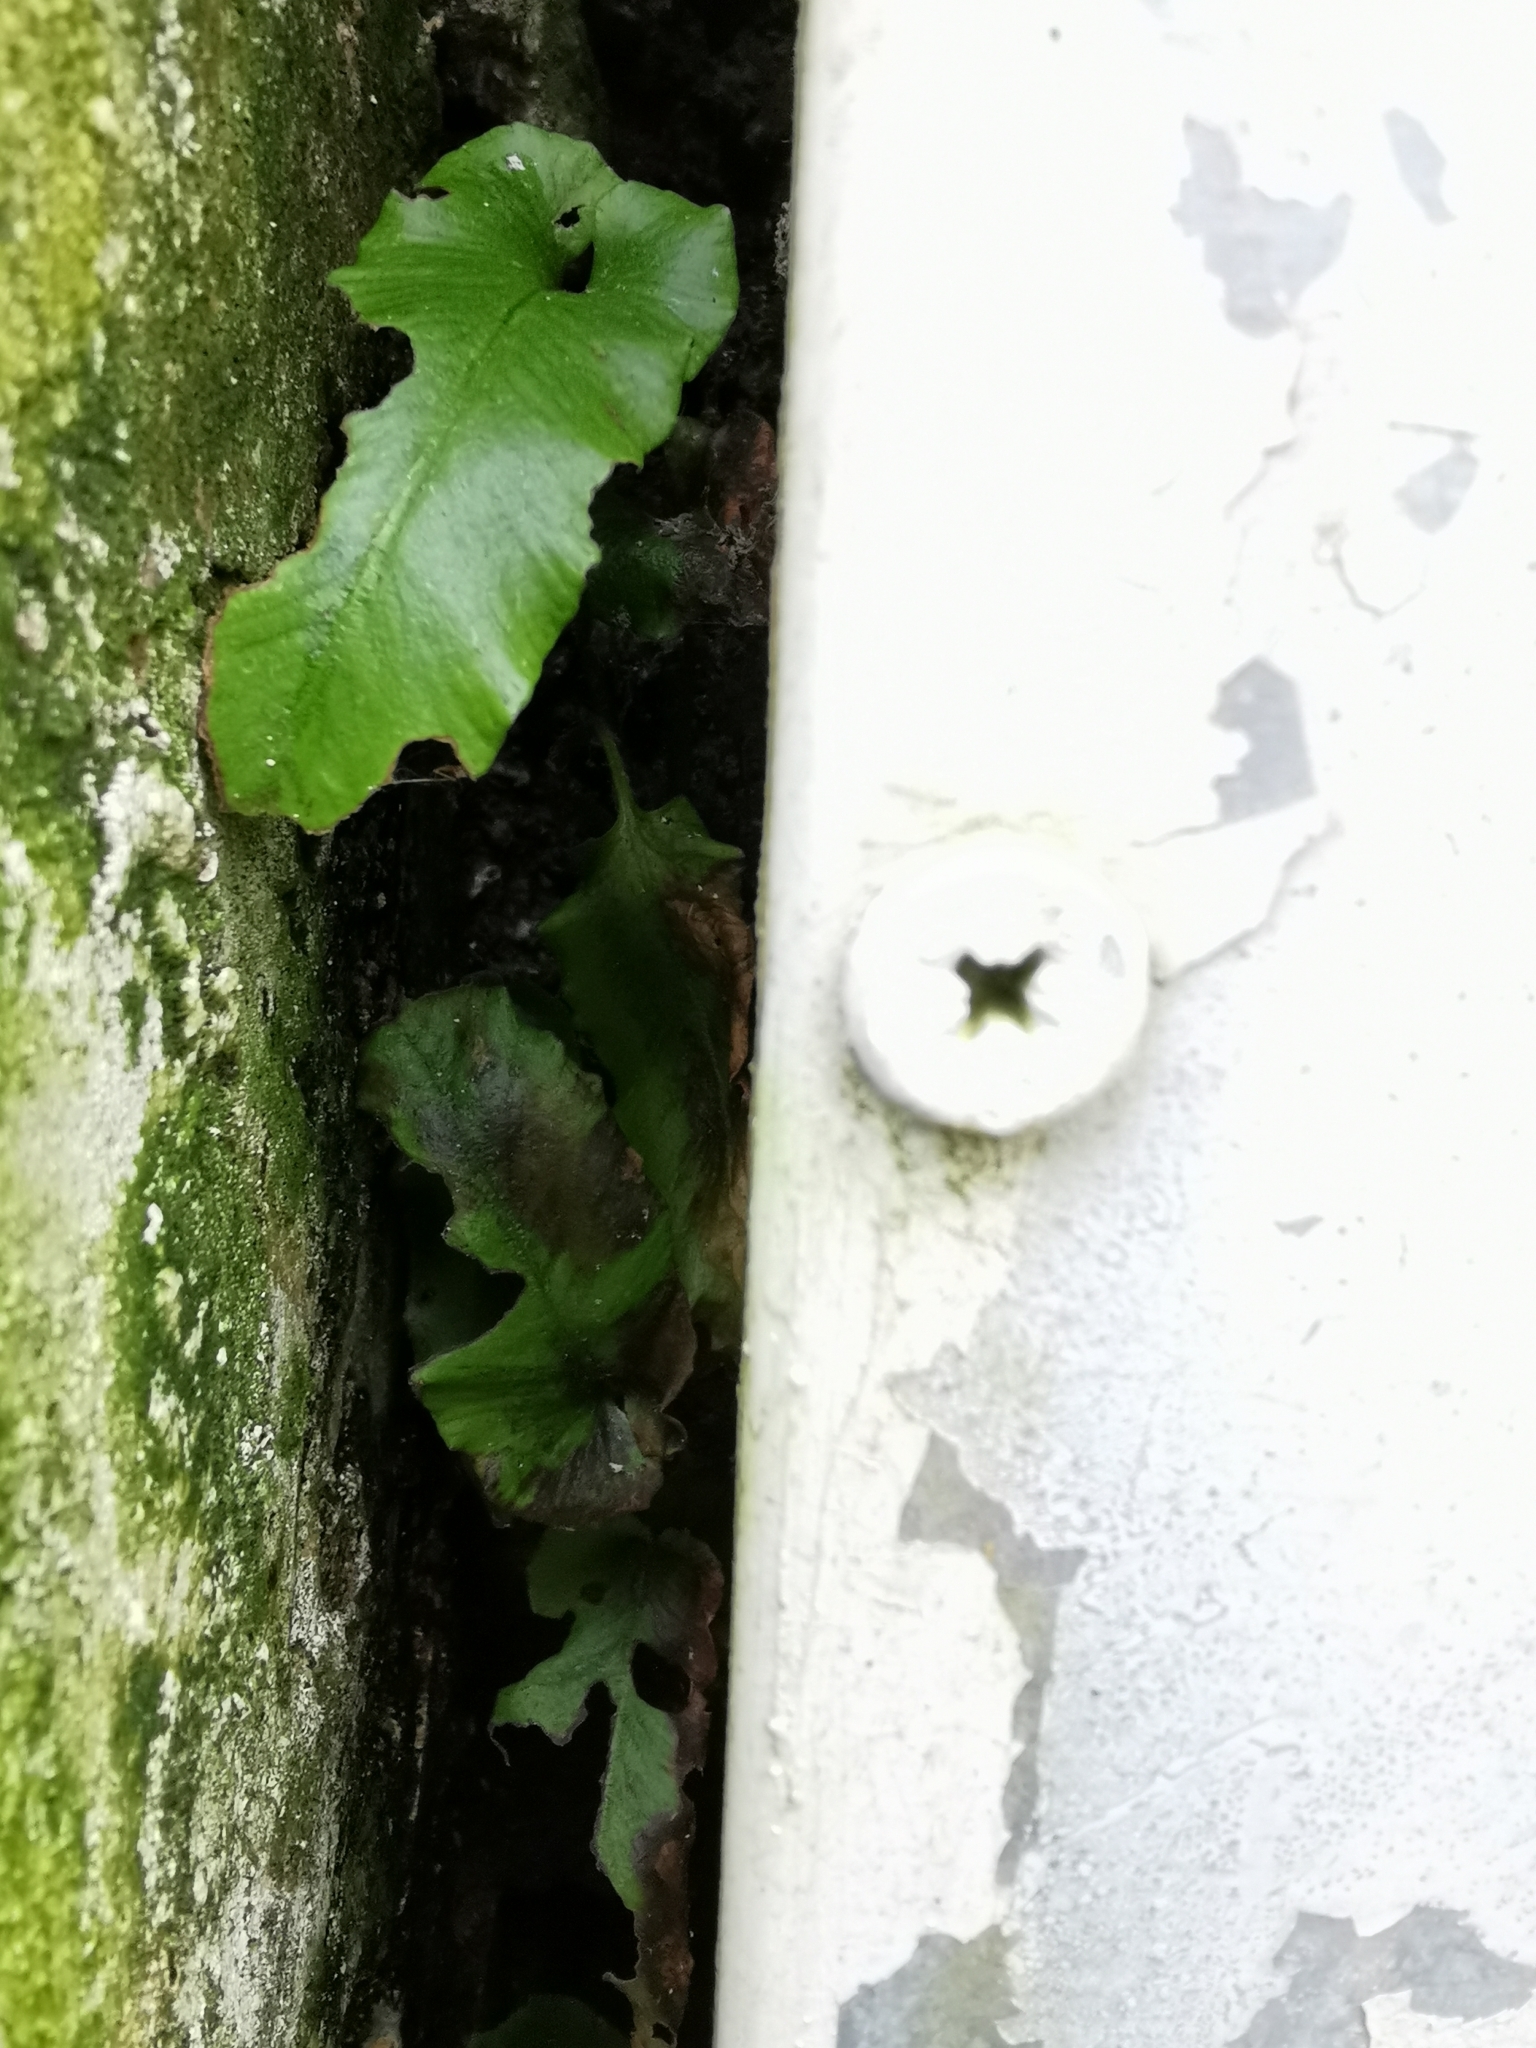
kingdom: Plantae
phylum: Tracheophyta
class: Polypodiopsida
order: Polypodiales
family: Aspleniaceae
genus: Asplenium
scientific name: Asplenium scolopendrium
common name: Hart's-tongue fern
